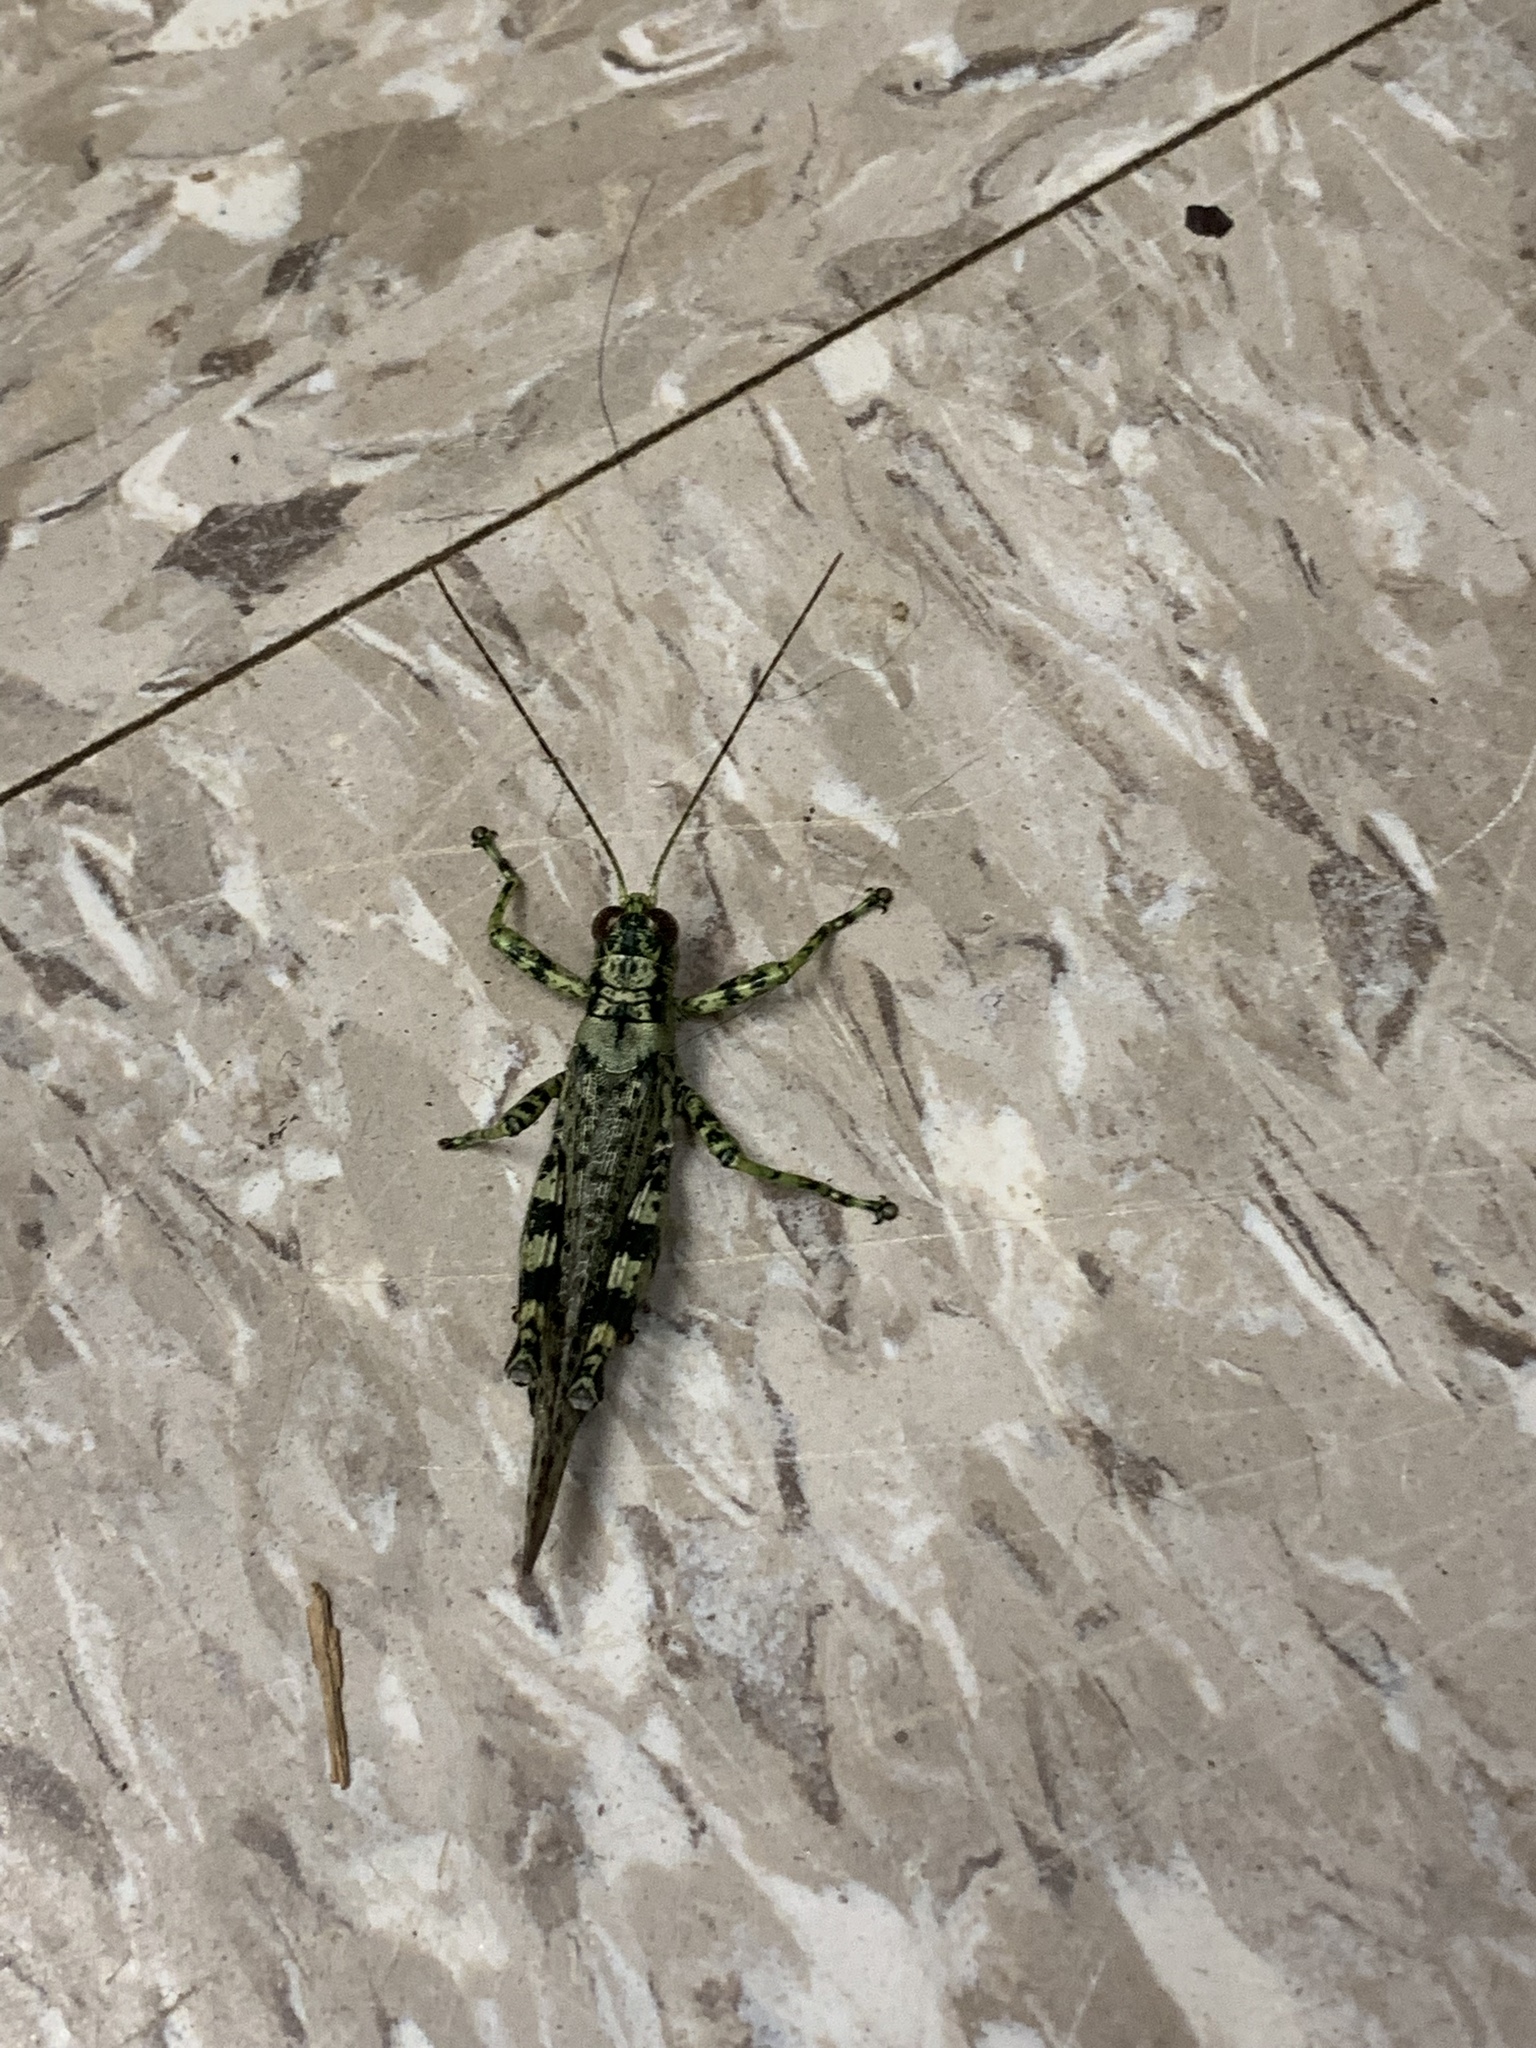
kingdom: Animalia
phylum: Arthropoda
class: Insecta
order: Orthoptera
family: Acrididae
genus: Melanoplus
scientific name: Melanoplus punctulatus
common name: Pine-tree spur-throat grasshopper
